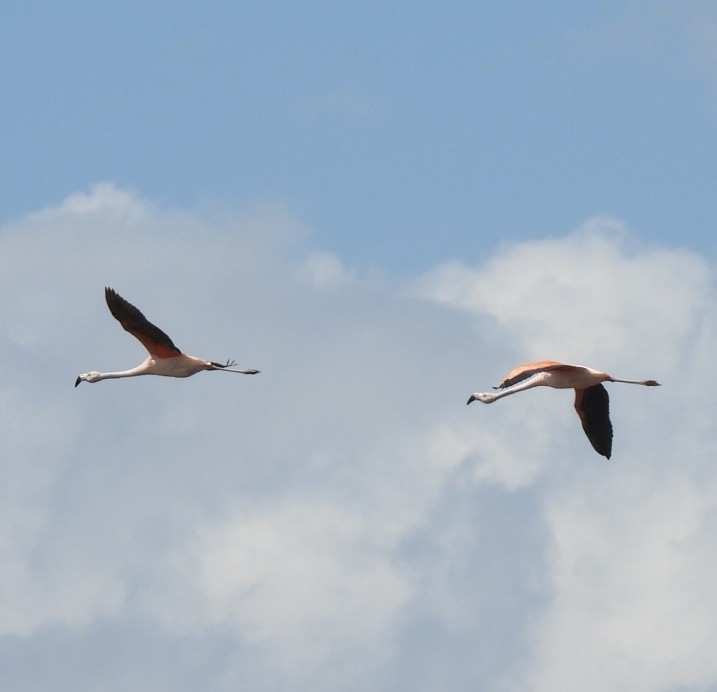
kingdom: Animalia
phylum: Chordata
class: Aves
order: Phoenicopteriformes
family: Phoenicopteridae
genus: Phoenicopterus
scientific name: Phoenicopterus chilensis
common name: Chilean flamingo
